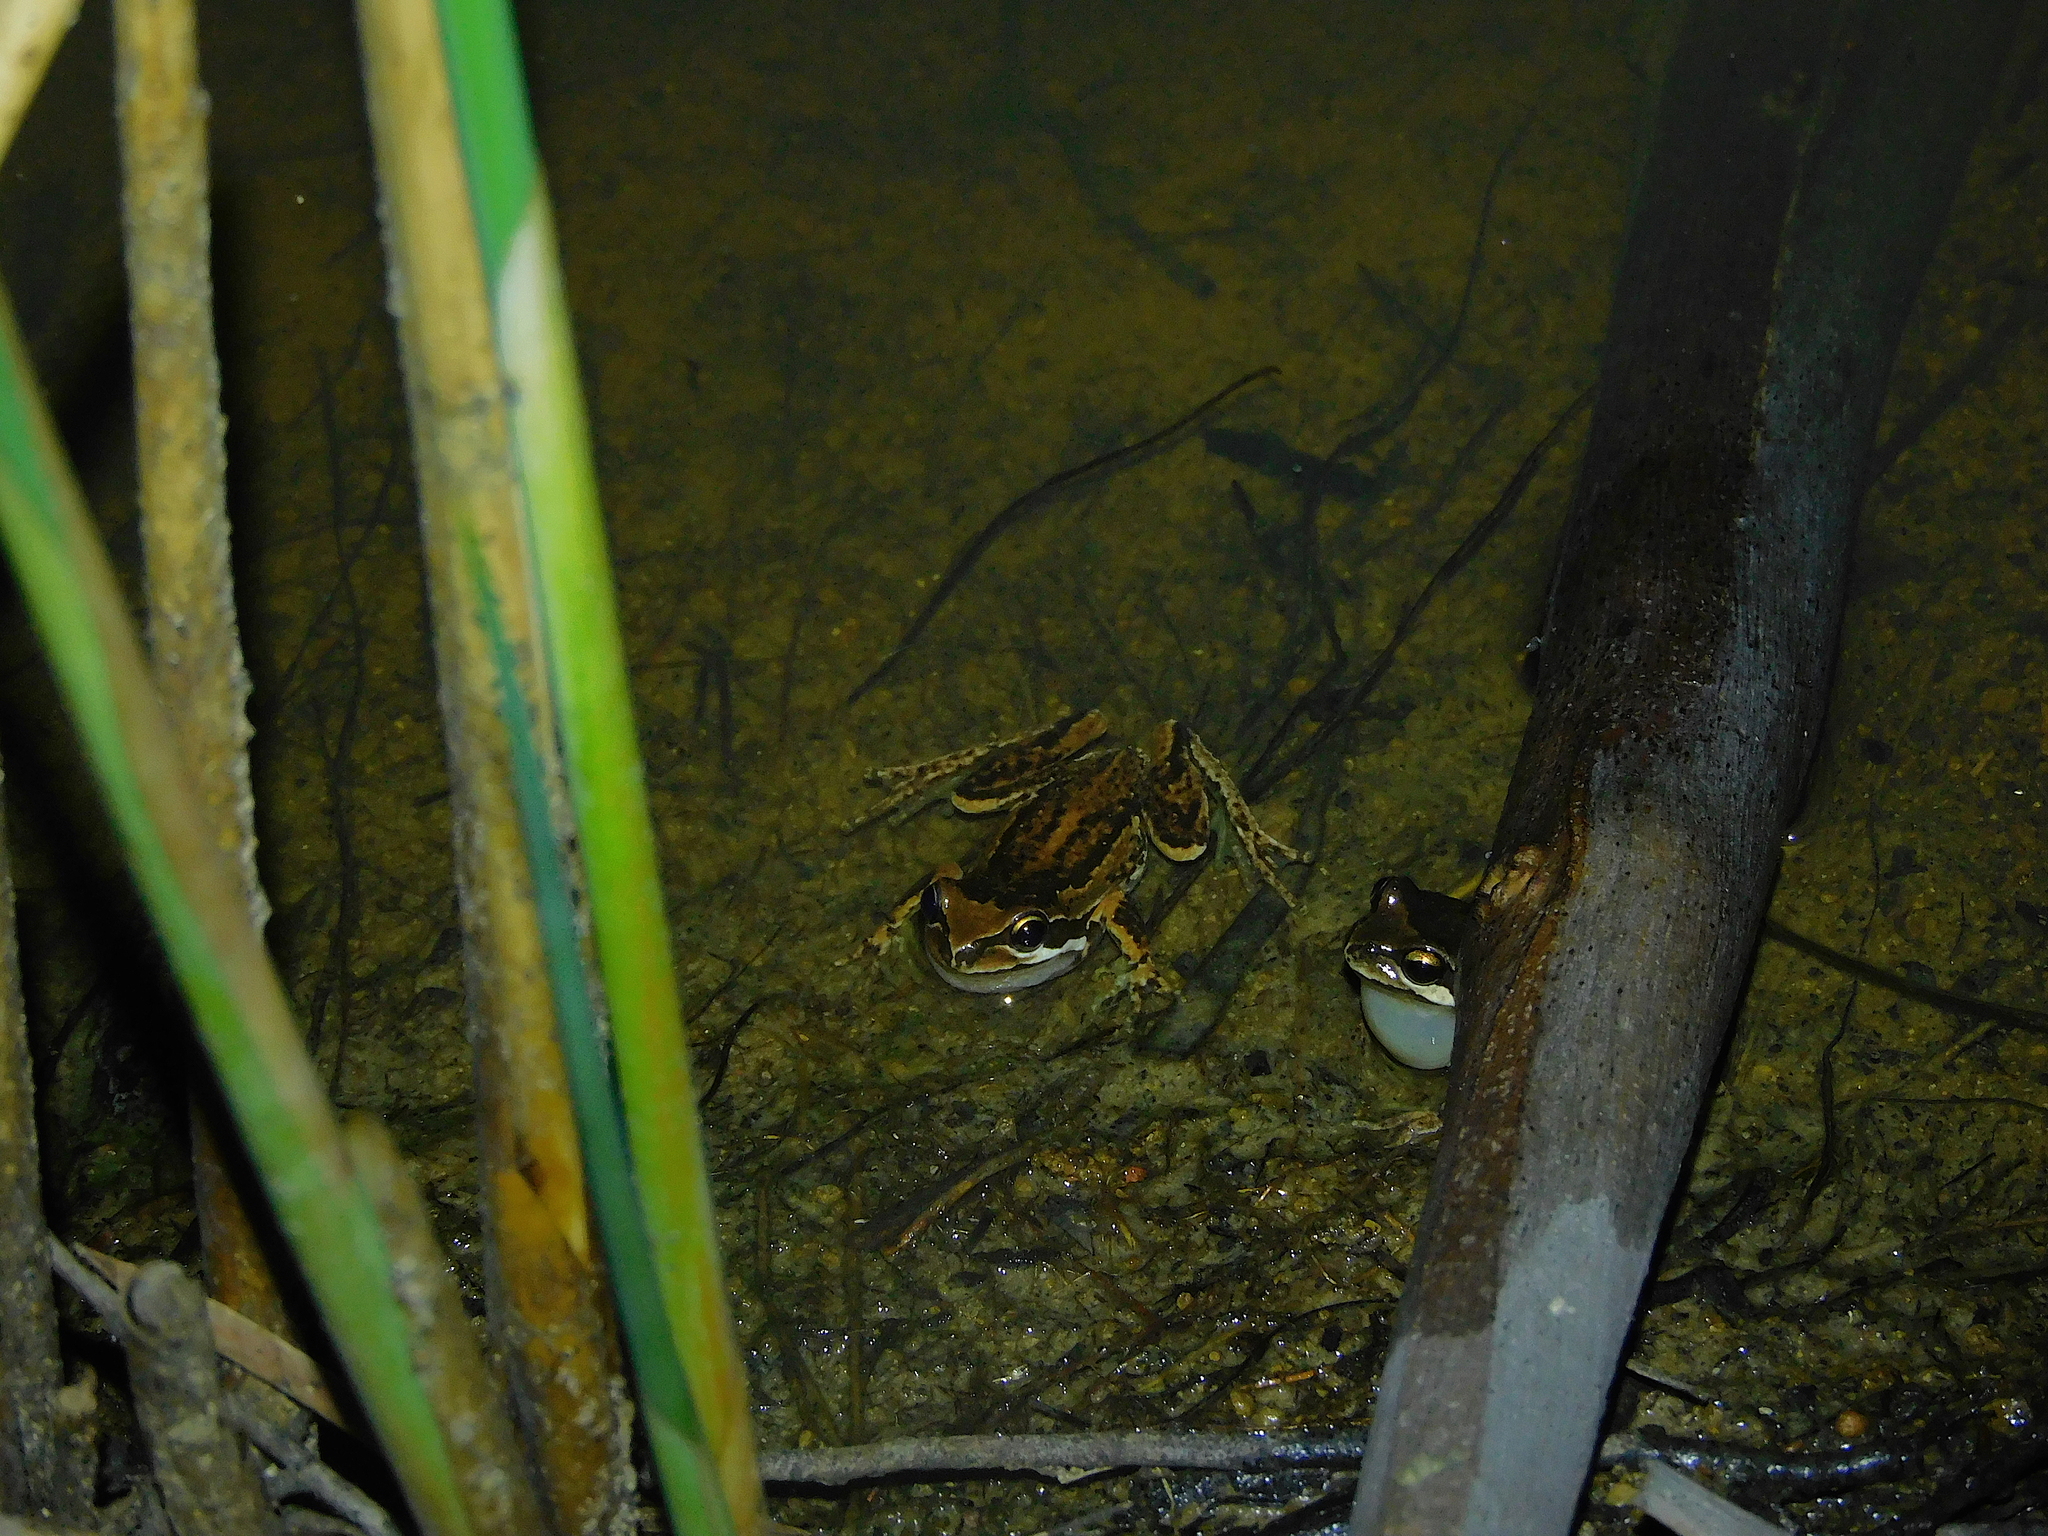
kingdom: Animalia
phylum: Chordata
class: Amphibia
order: Anura
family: Pelodryadidae
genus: Litoria
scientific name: Litoria ewingii
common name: Southern brown tree frog
